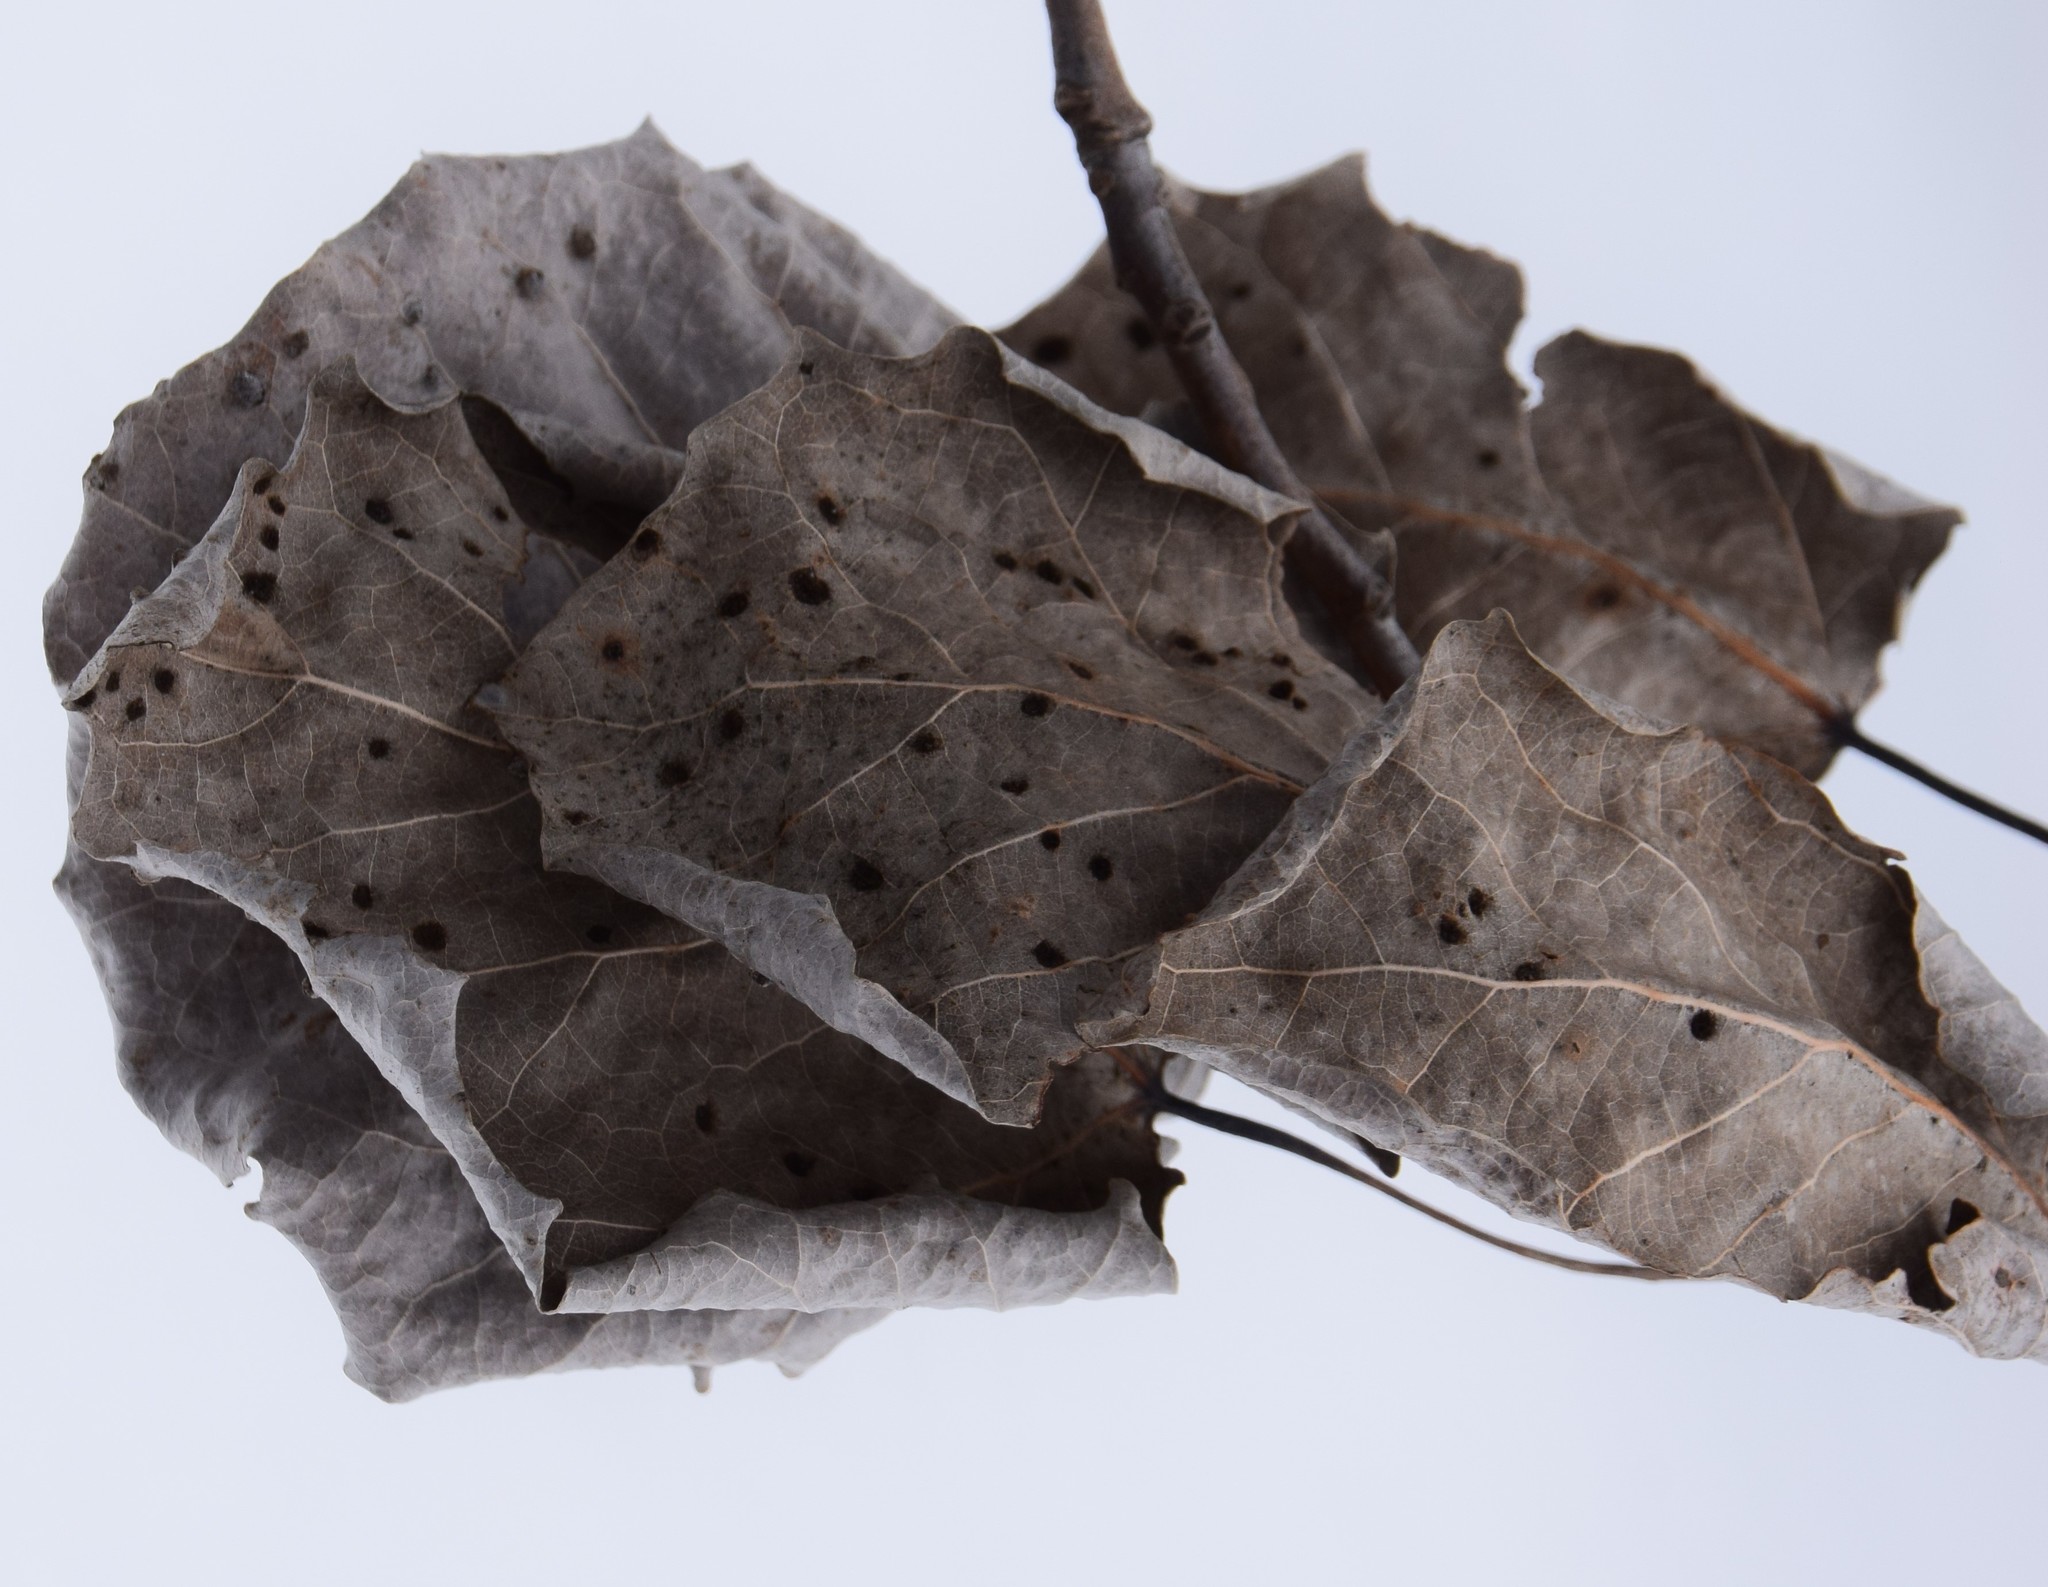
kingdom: Plantae
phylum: Tracheophyta
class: Magnoliopsida
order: Malpighiales
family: Salicaceae
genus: Populus
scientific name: Populus grandidentata
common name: Bigtooth aspen
